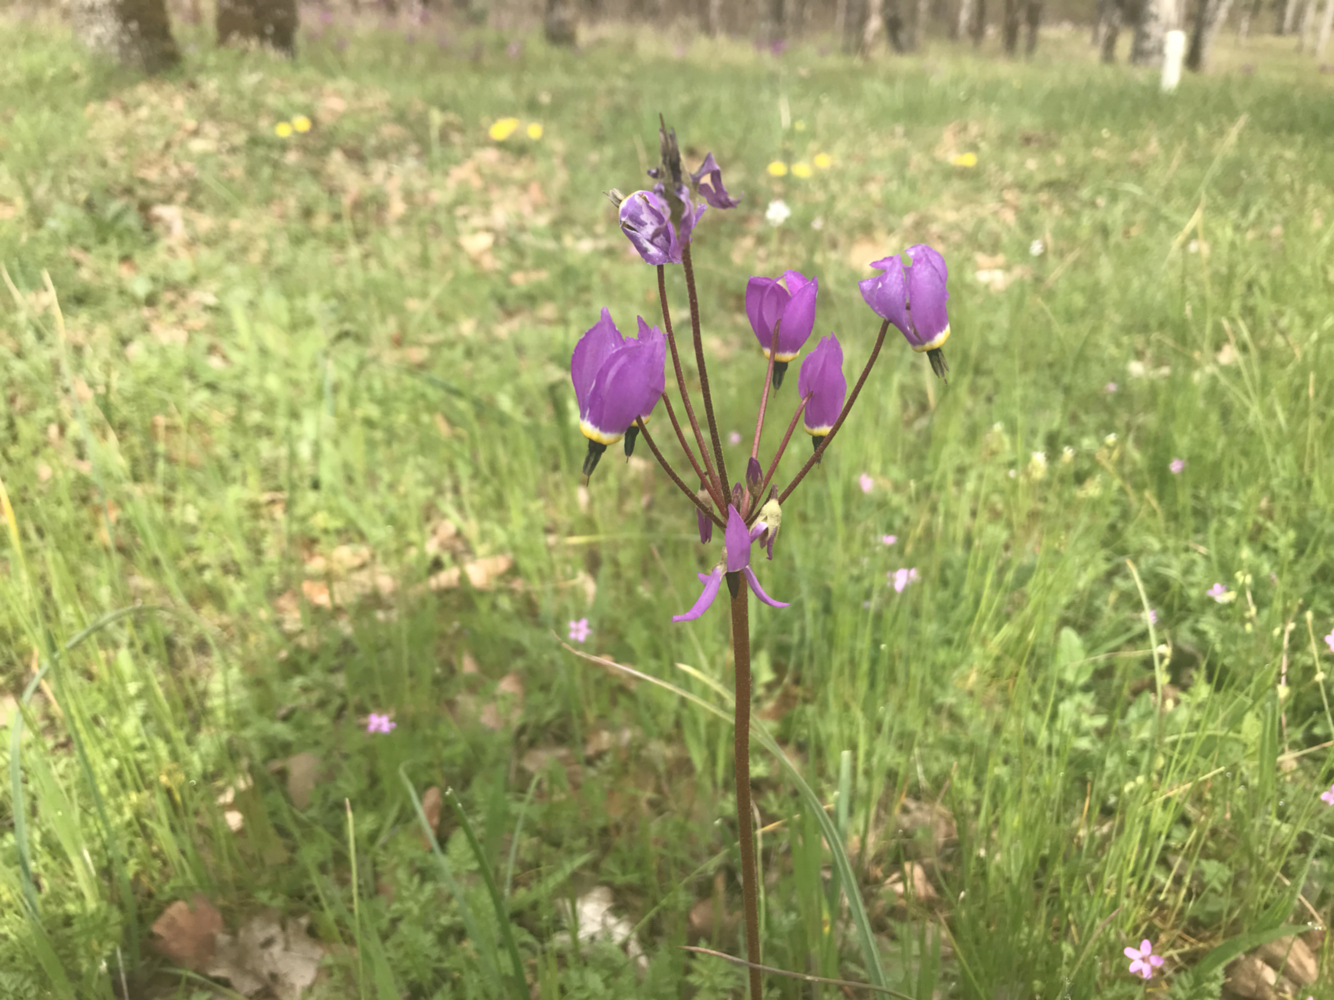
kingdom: Plantae
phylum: Tracheophyta
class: Magnoliopsida
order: Ericales
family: Primulaceae
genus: Dodecatheon
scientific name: Dodecatheon hendersonii
